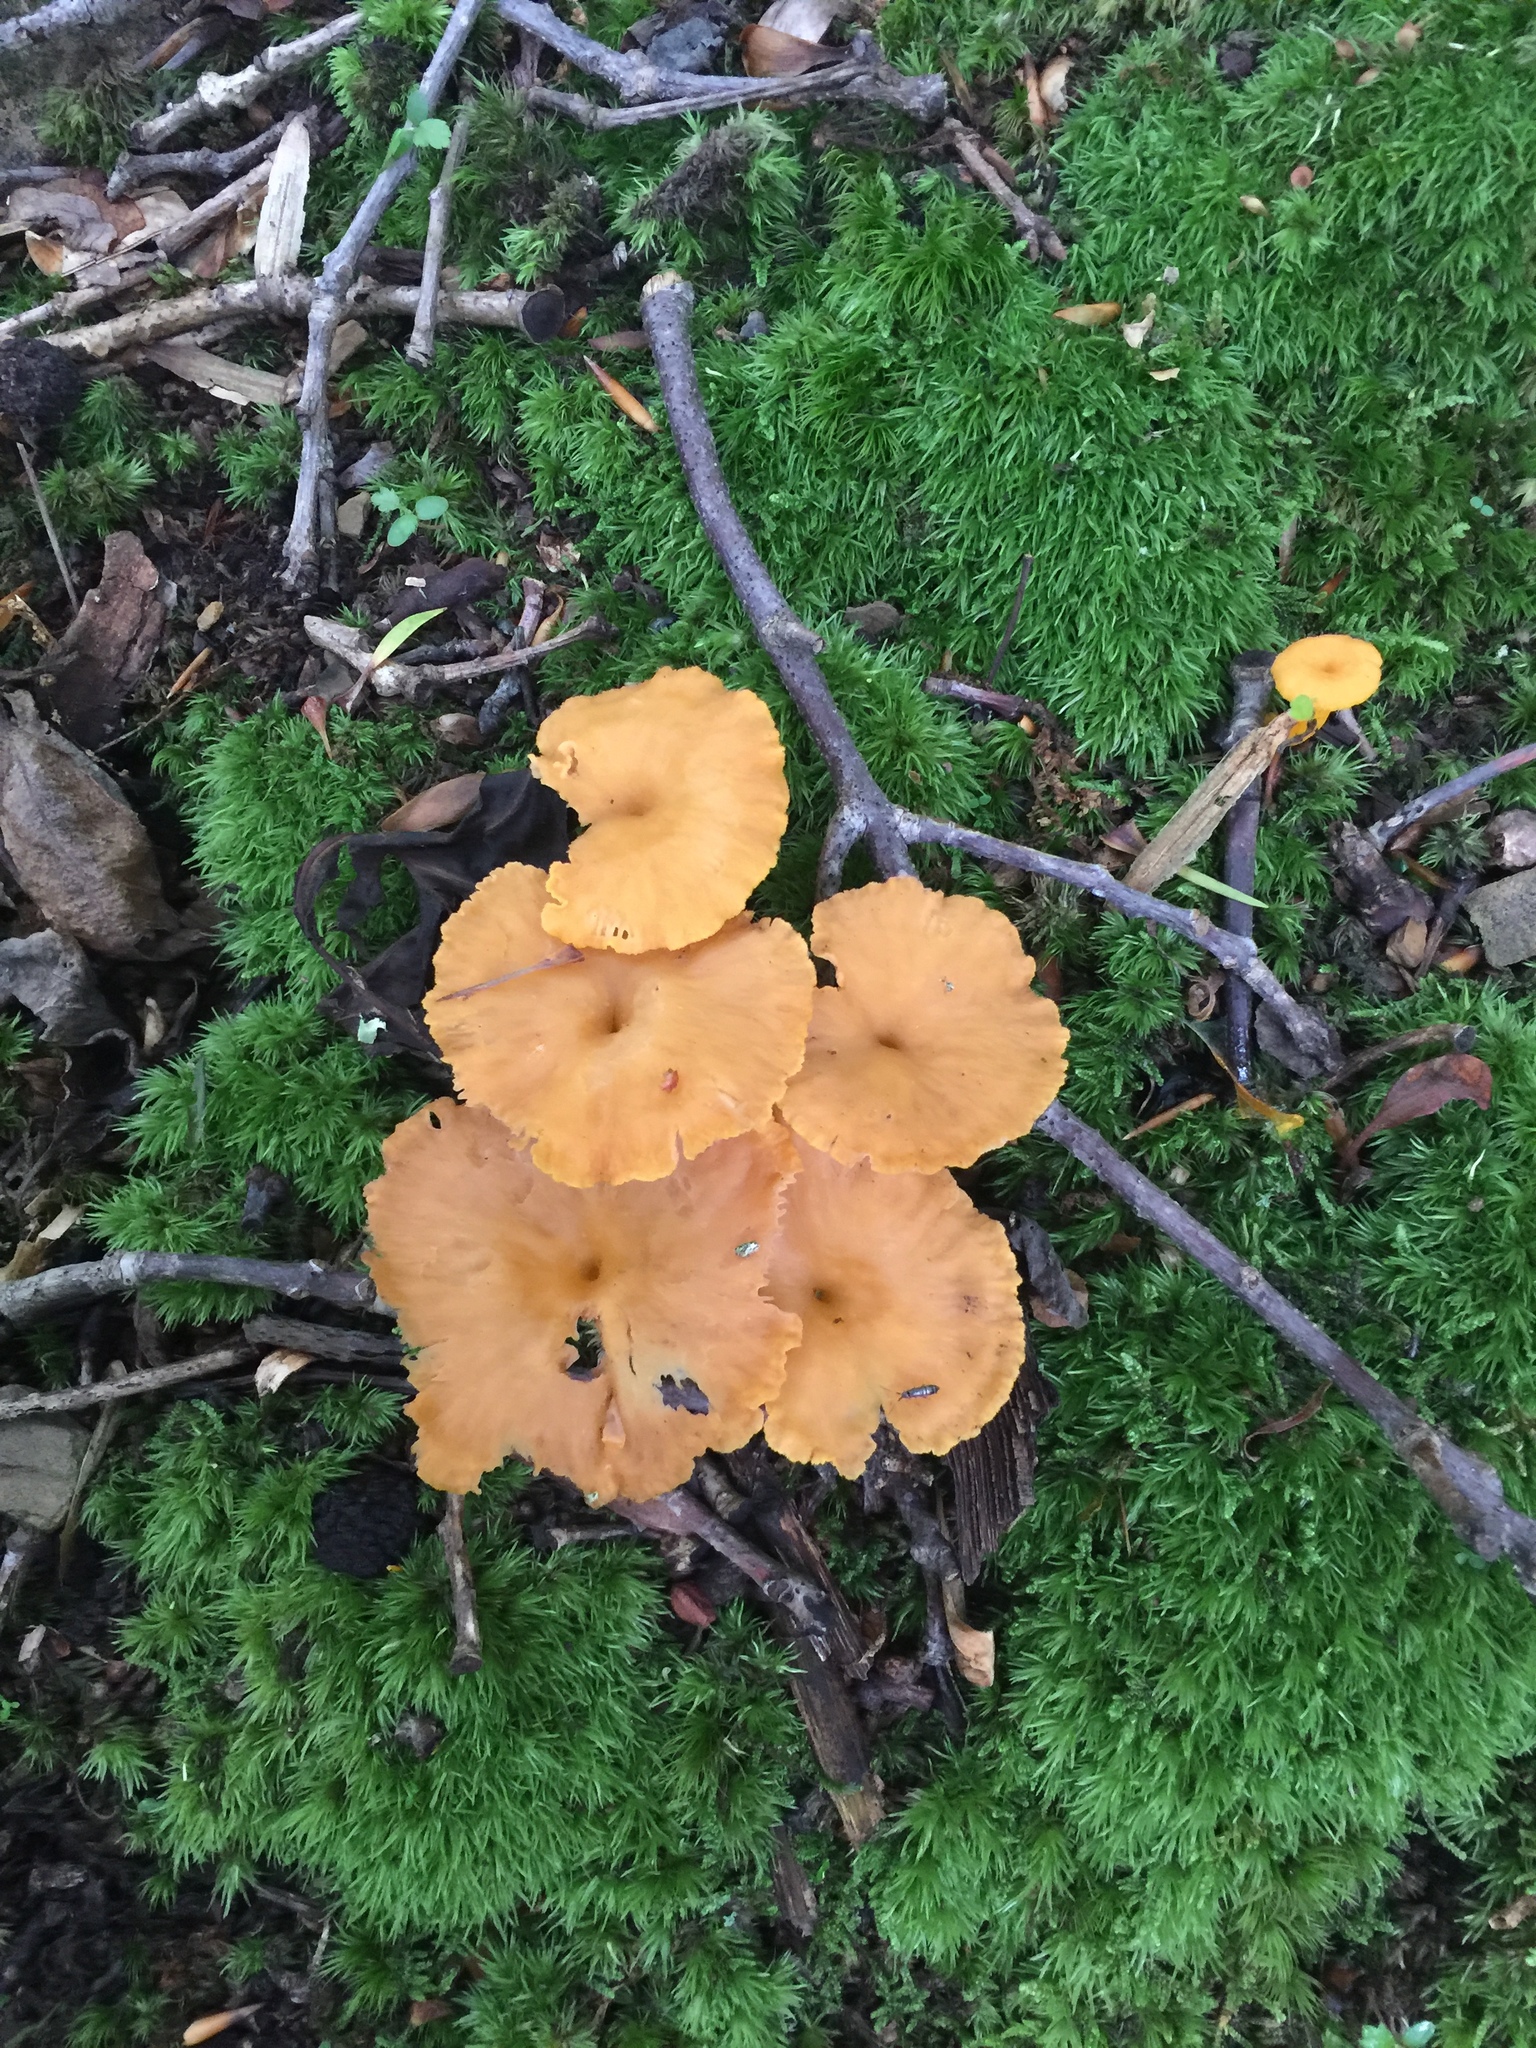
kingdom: Fungi
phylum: Basidiomycota
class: Agaricomycetes
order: Cantharellales
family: Hydnaceae
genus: Craterellus
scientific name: Craterellus ignicolor
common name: Flame chanterelle
